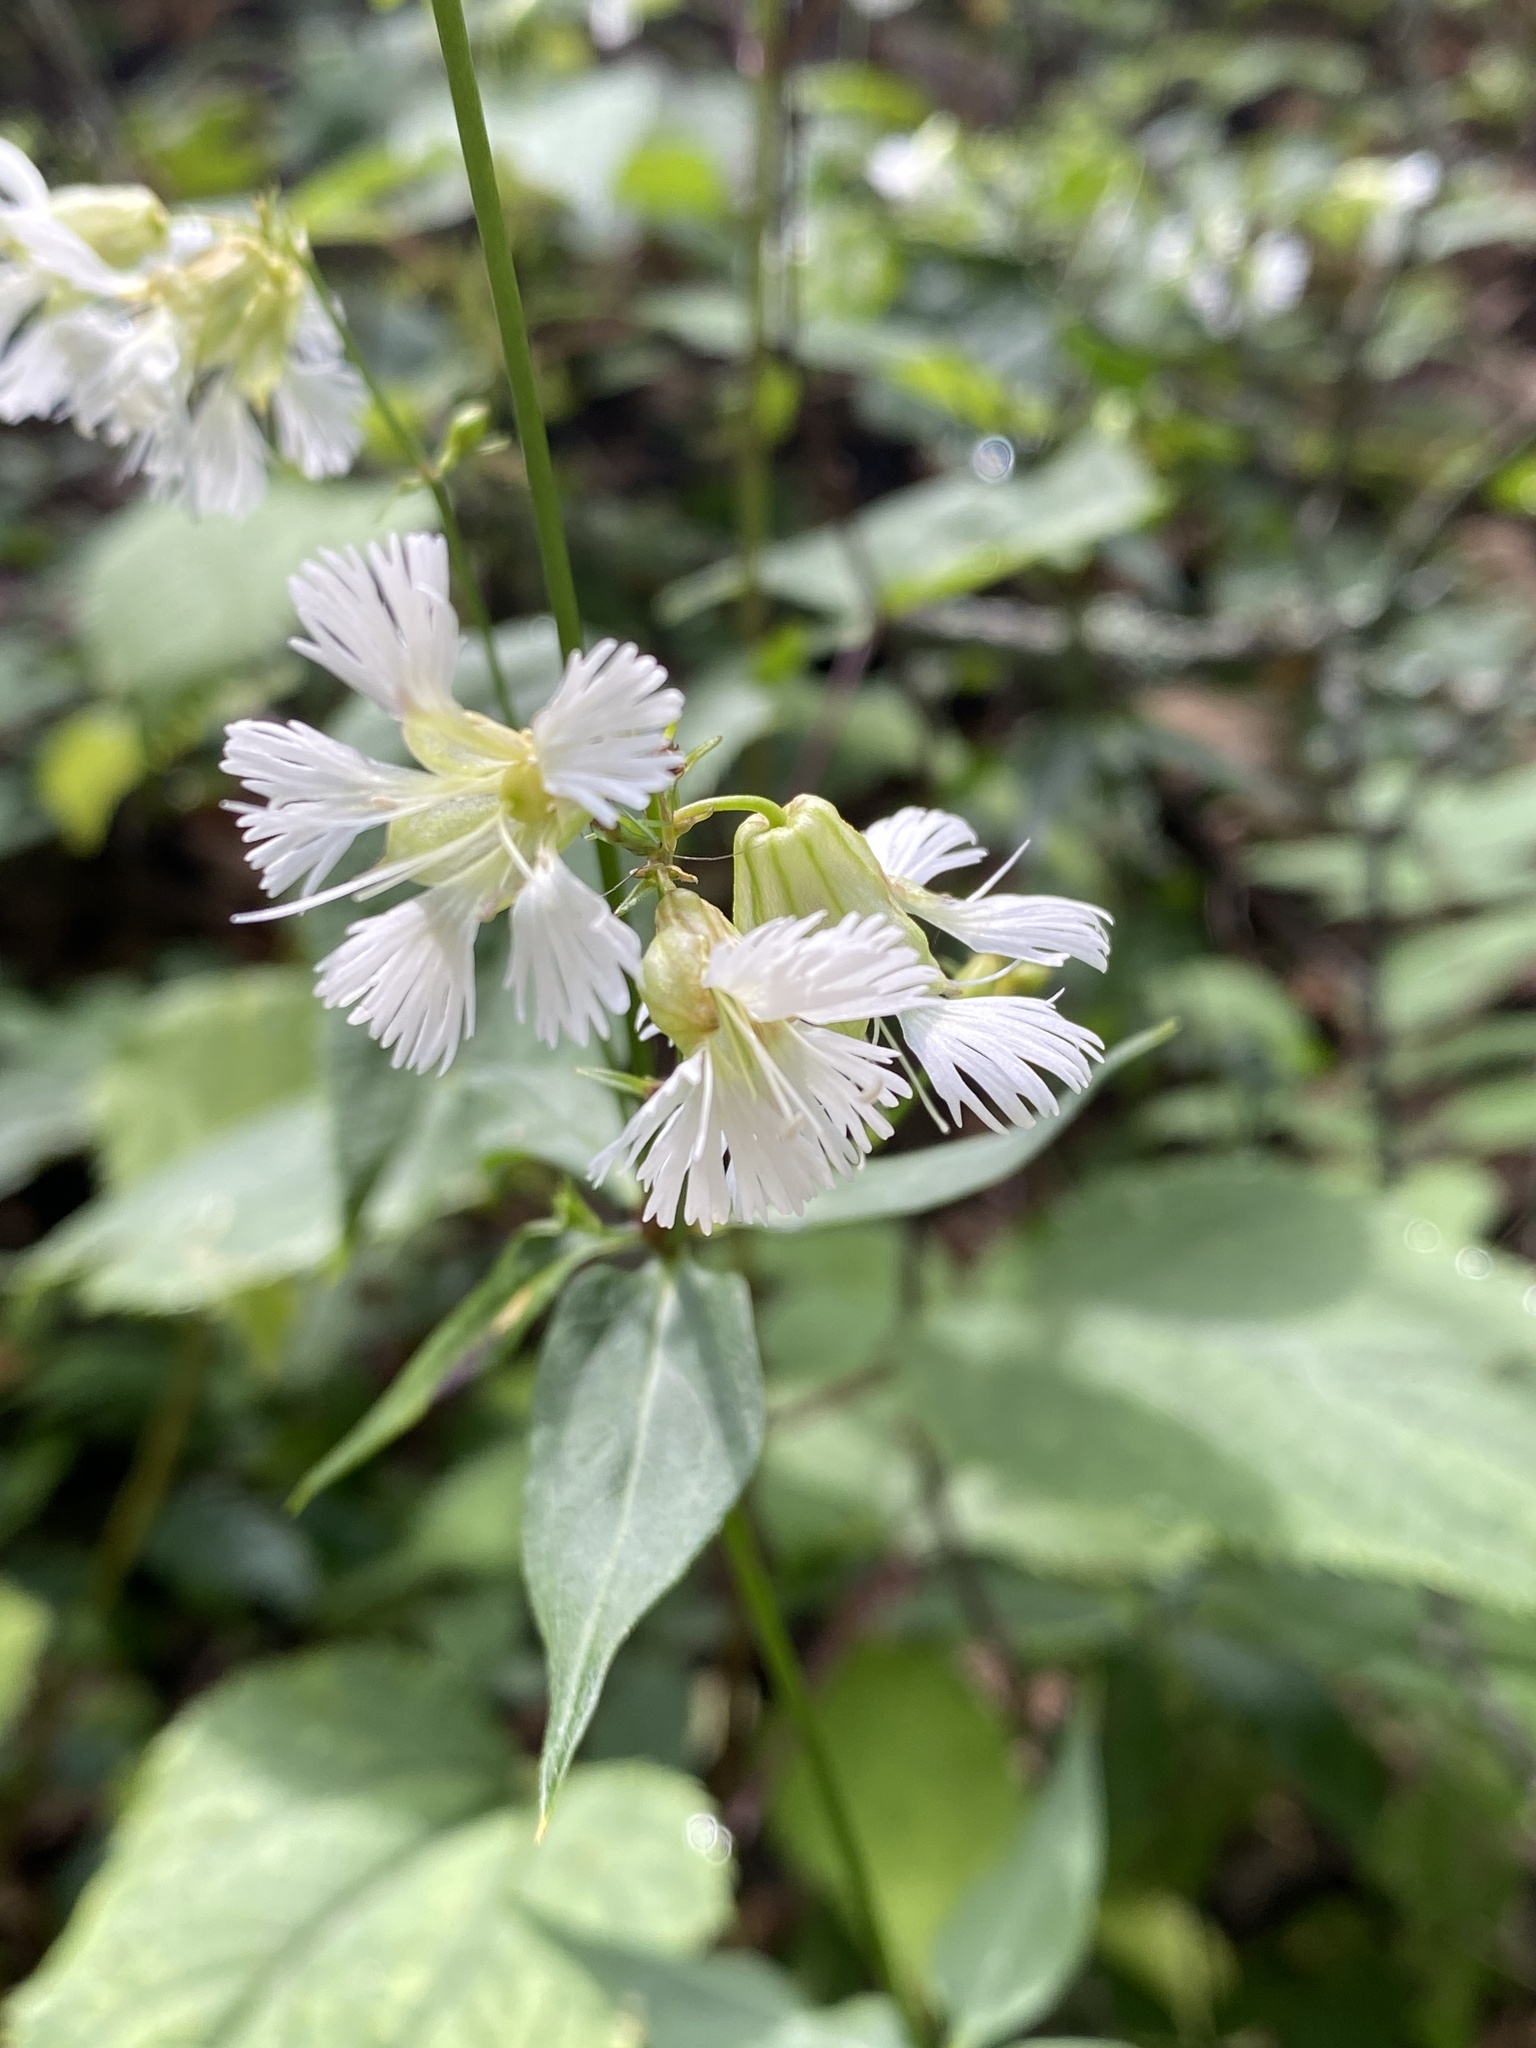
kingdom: Plantae
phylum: Tracheophyta
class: Magnoliopsida
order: Caryophyllales
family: Caryophyllaceae
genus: Silene
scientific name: Silene stellata
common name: Starry campion
